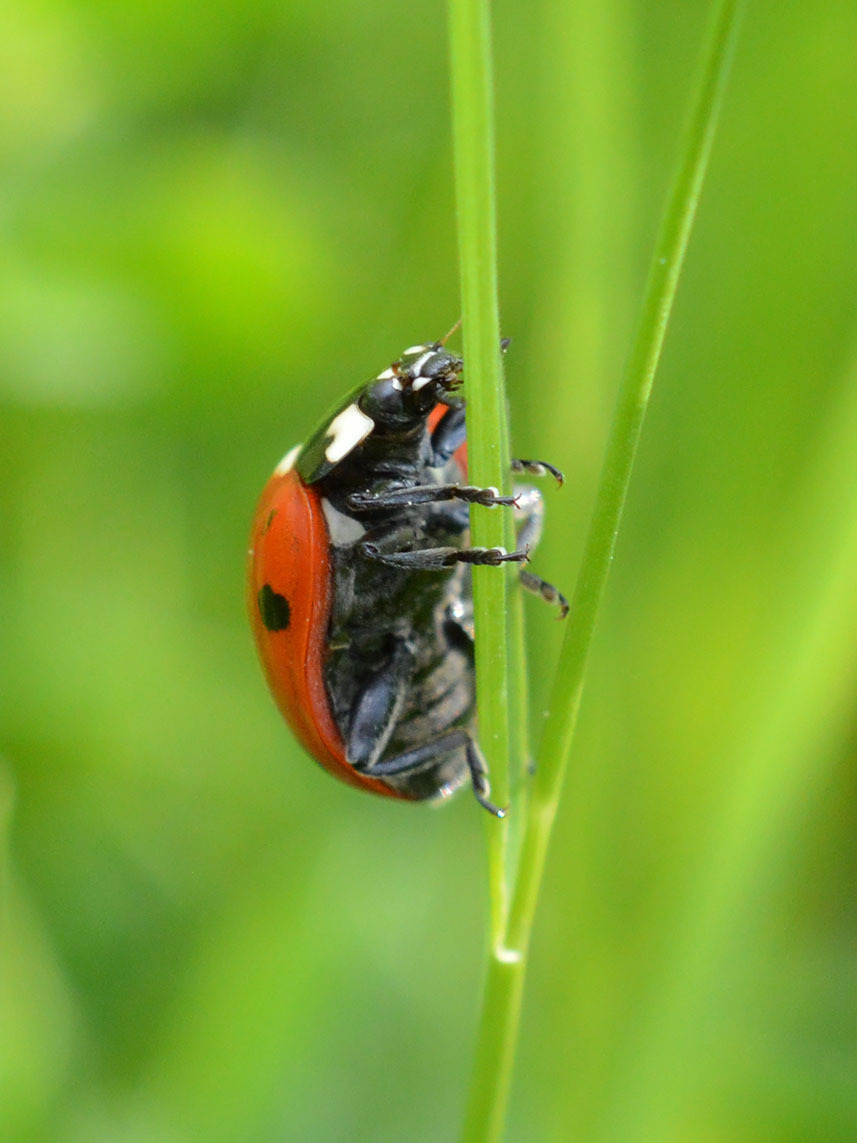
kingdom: Animalia
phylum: Arthropoda
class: Insecta
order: Coleoptera
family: Coccinellidae
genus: Coccinella
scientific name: Coccinella septempunctata
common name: Sevenspotted lady beetle
